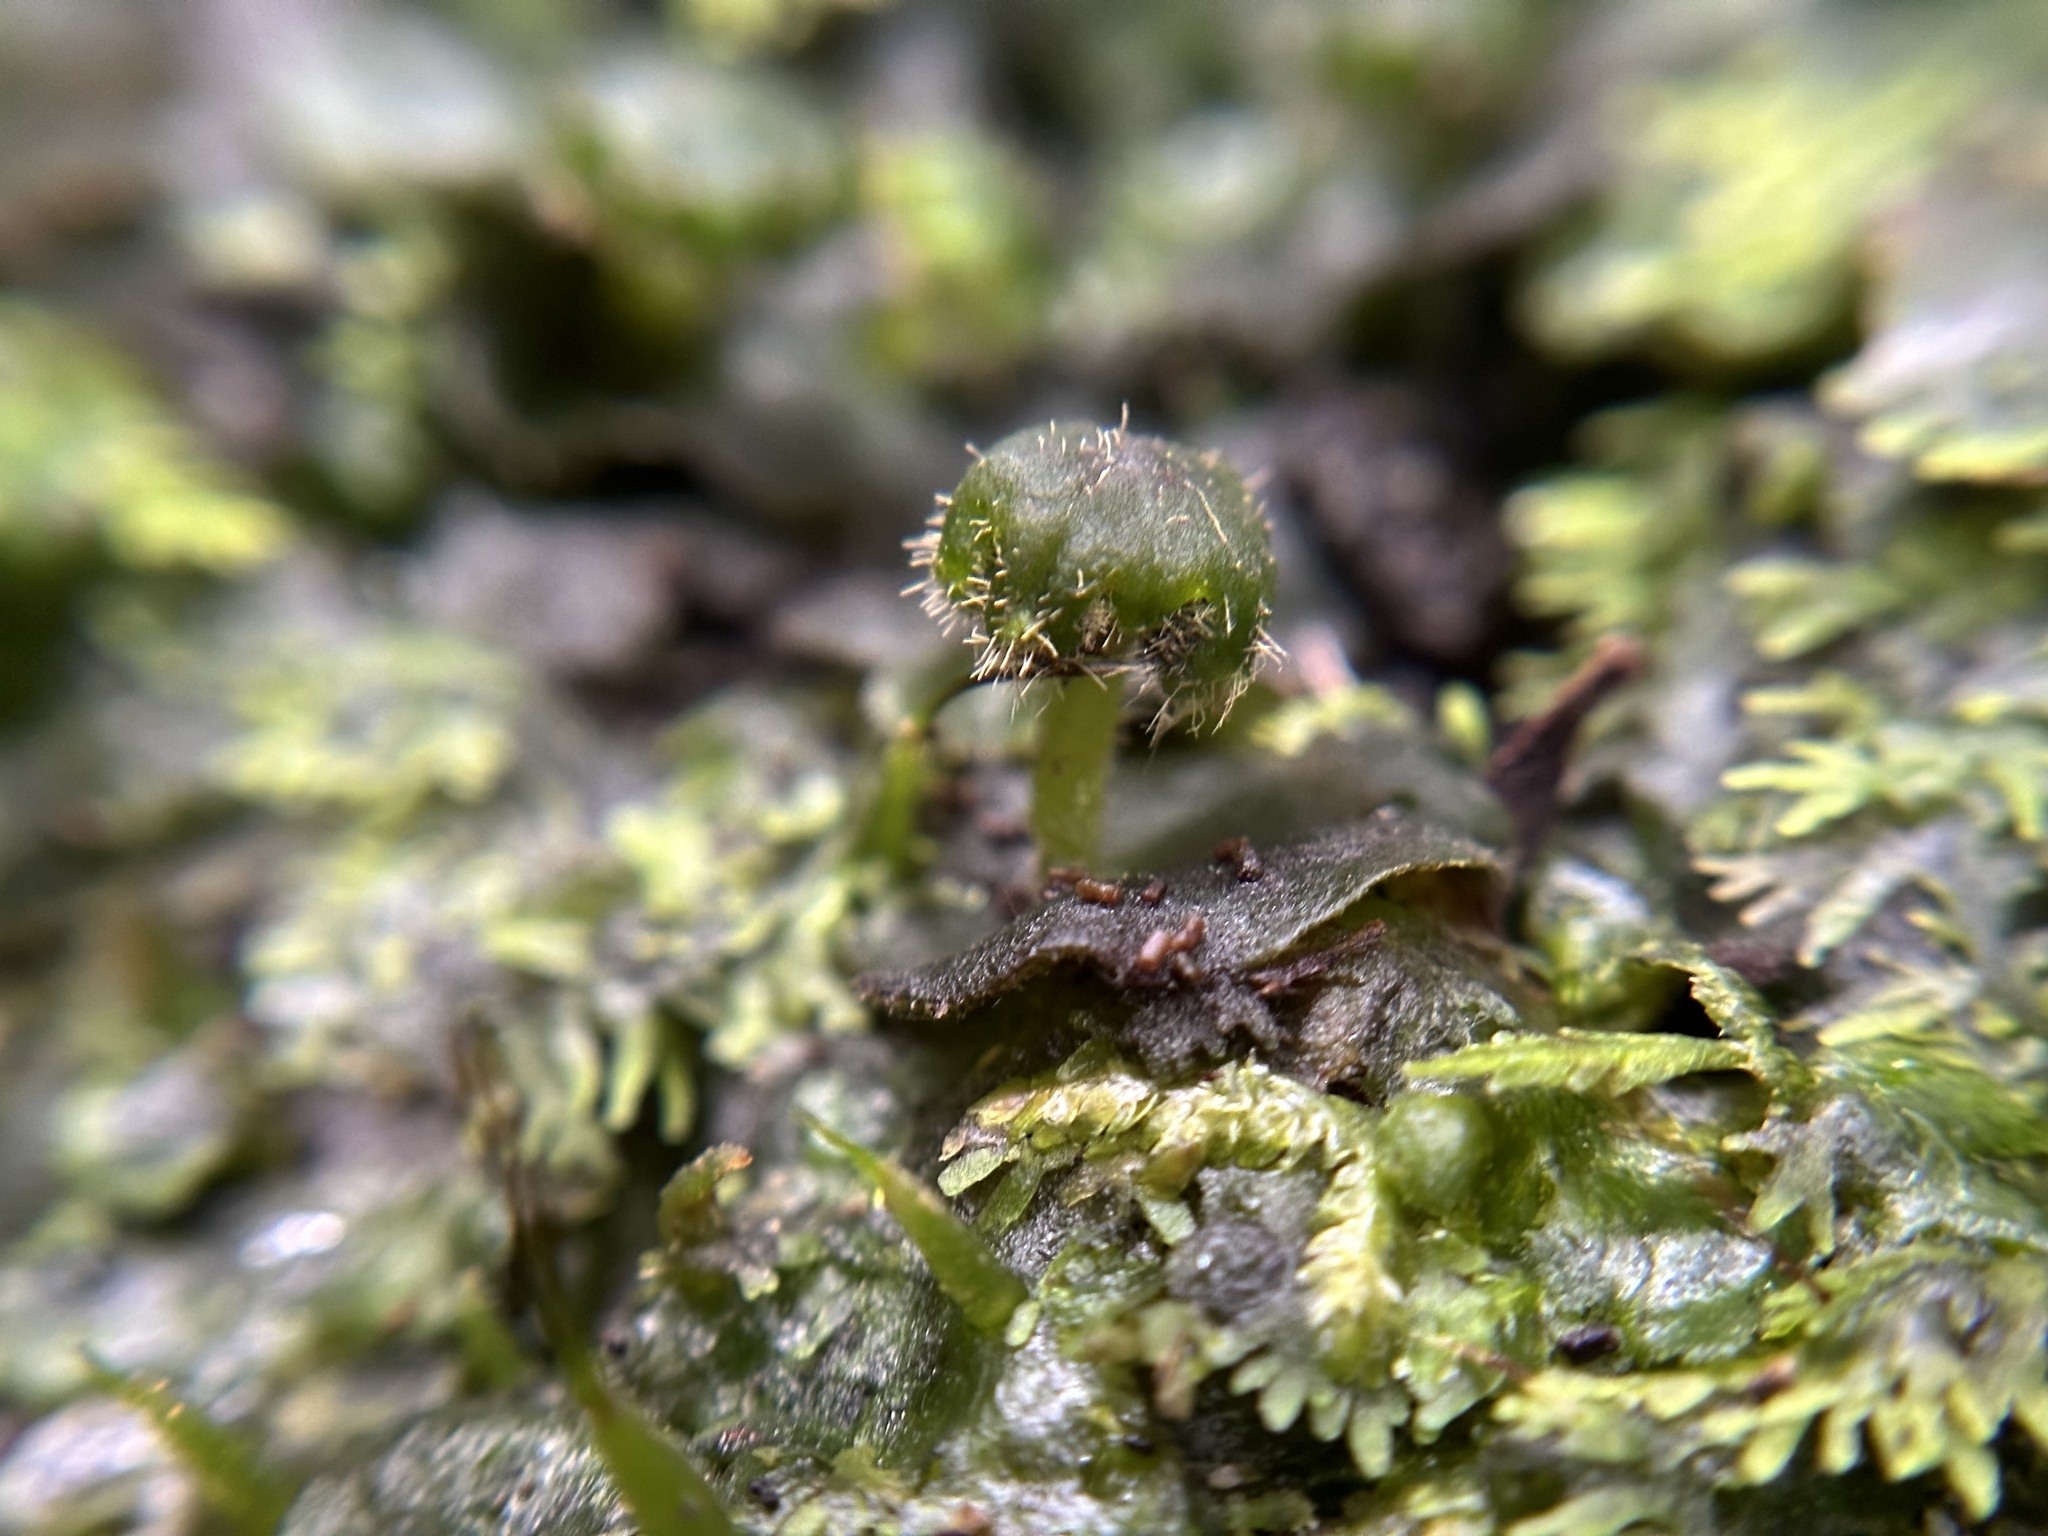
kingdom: Plantae
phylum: Marchantiophyta
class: Marchantiopsida
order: Marchantiales
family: Dumortieraceae
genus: Dumortiera
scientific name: Dumortiera hirsuta
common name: Dumortier's liverwort
